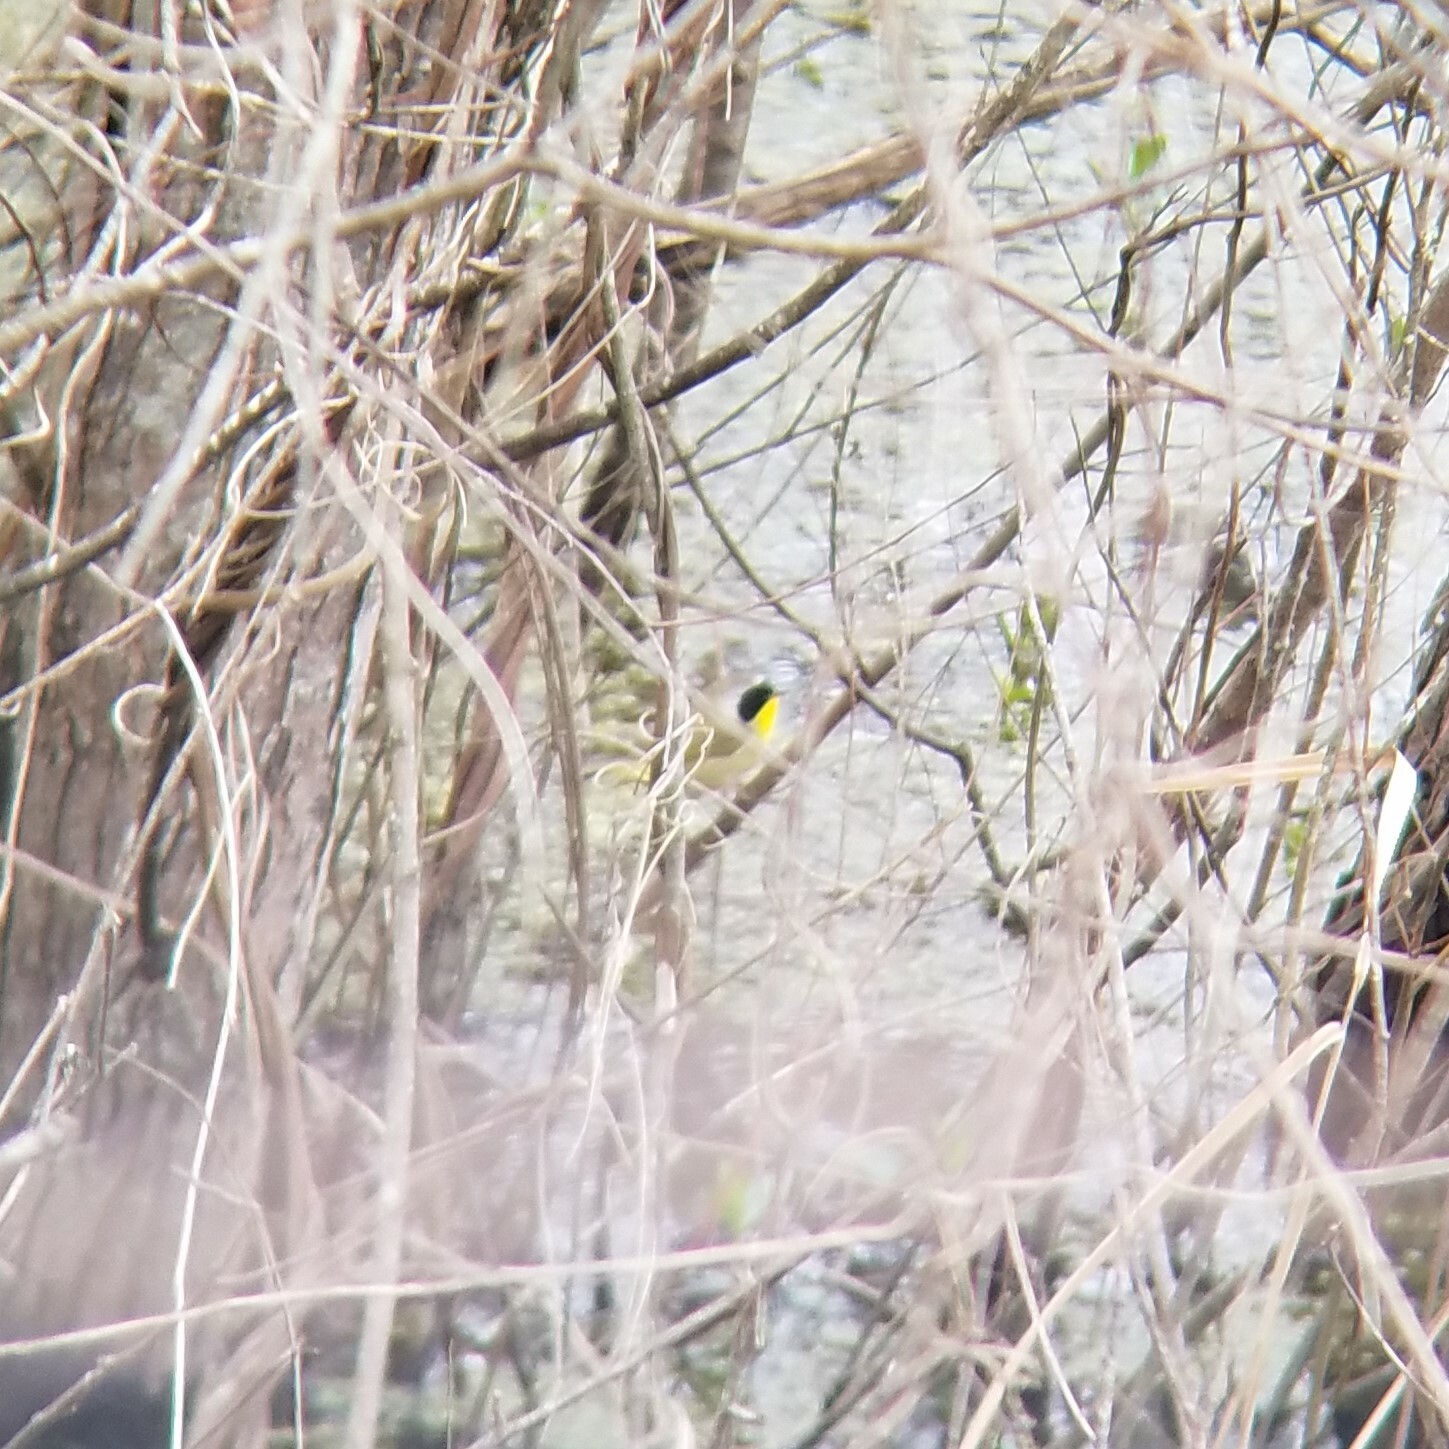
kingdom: Animalia
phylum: Chordata
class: Aves
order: Passeriformes
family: Parulidae
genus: Geothlypis
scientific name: Geothlypis trichas
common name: Common yellowthroat
